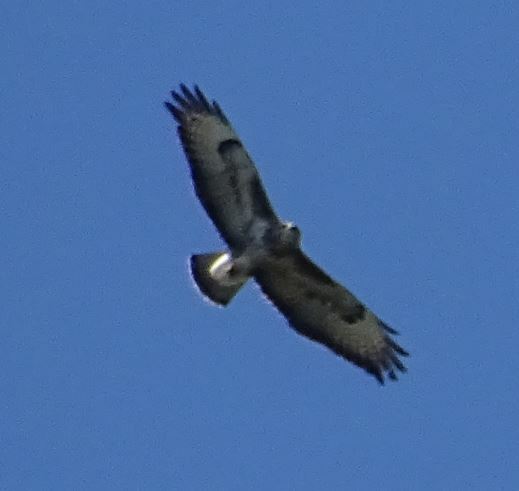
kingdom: Animalia
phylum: Chordata
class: Aves
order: Accipitriformes
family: Accipitridae
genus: Buteo
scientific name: Buteo buteo
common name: Common buzzard
